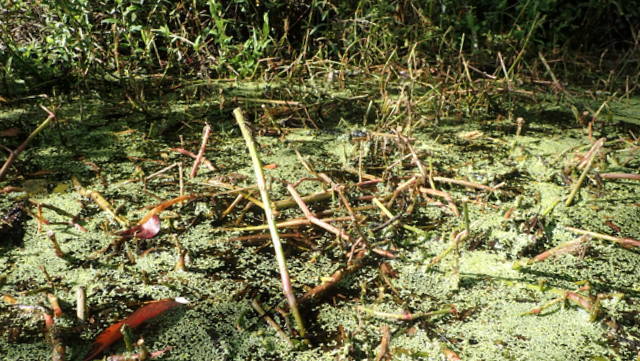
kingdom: Plantae
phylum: Tracheophyta
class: Magnoliopsida
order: Caryophyllales
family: Amaranthaceae
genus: Alternanthera
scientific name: Alternanthera philoxeroides
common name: Alligatorweed
